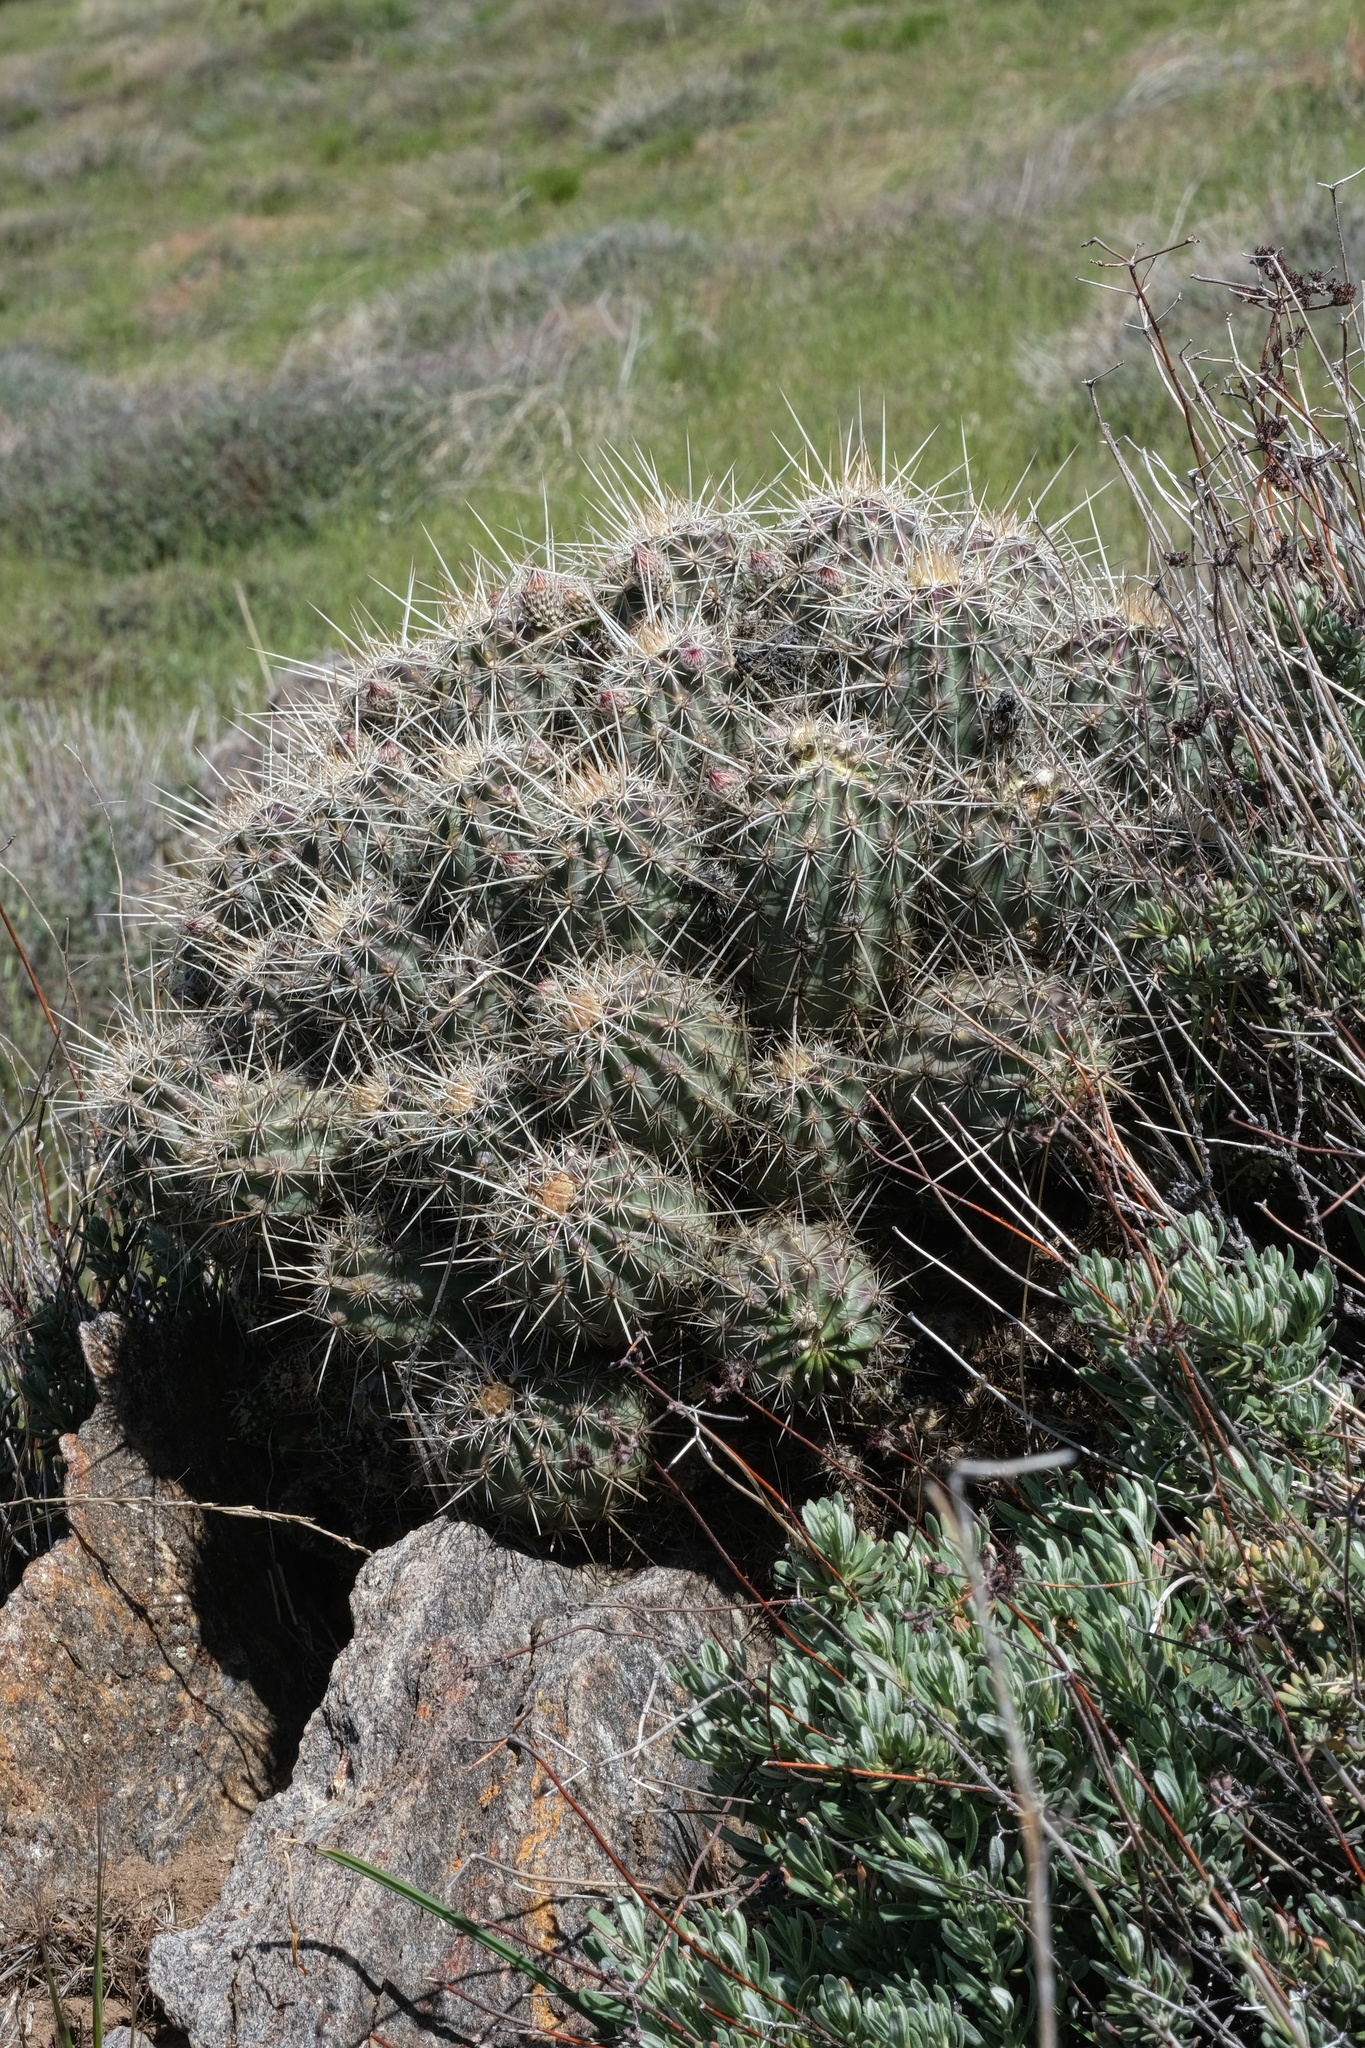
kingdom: Plantae
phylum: Tracheophyta
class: Magnoliopsida
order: Caryophyllales
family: Cactaceae
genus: Echinocereus
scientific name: Echinocereus engelmannii
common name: Engelmann's hedgehog cactus
